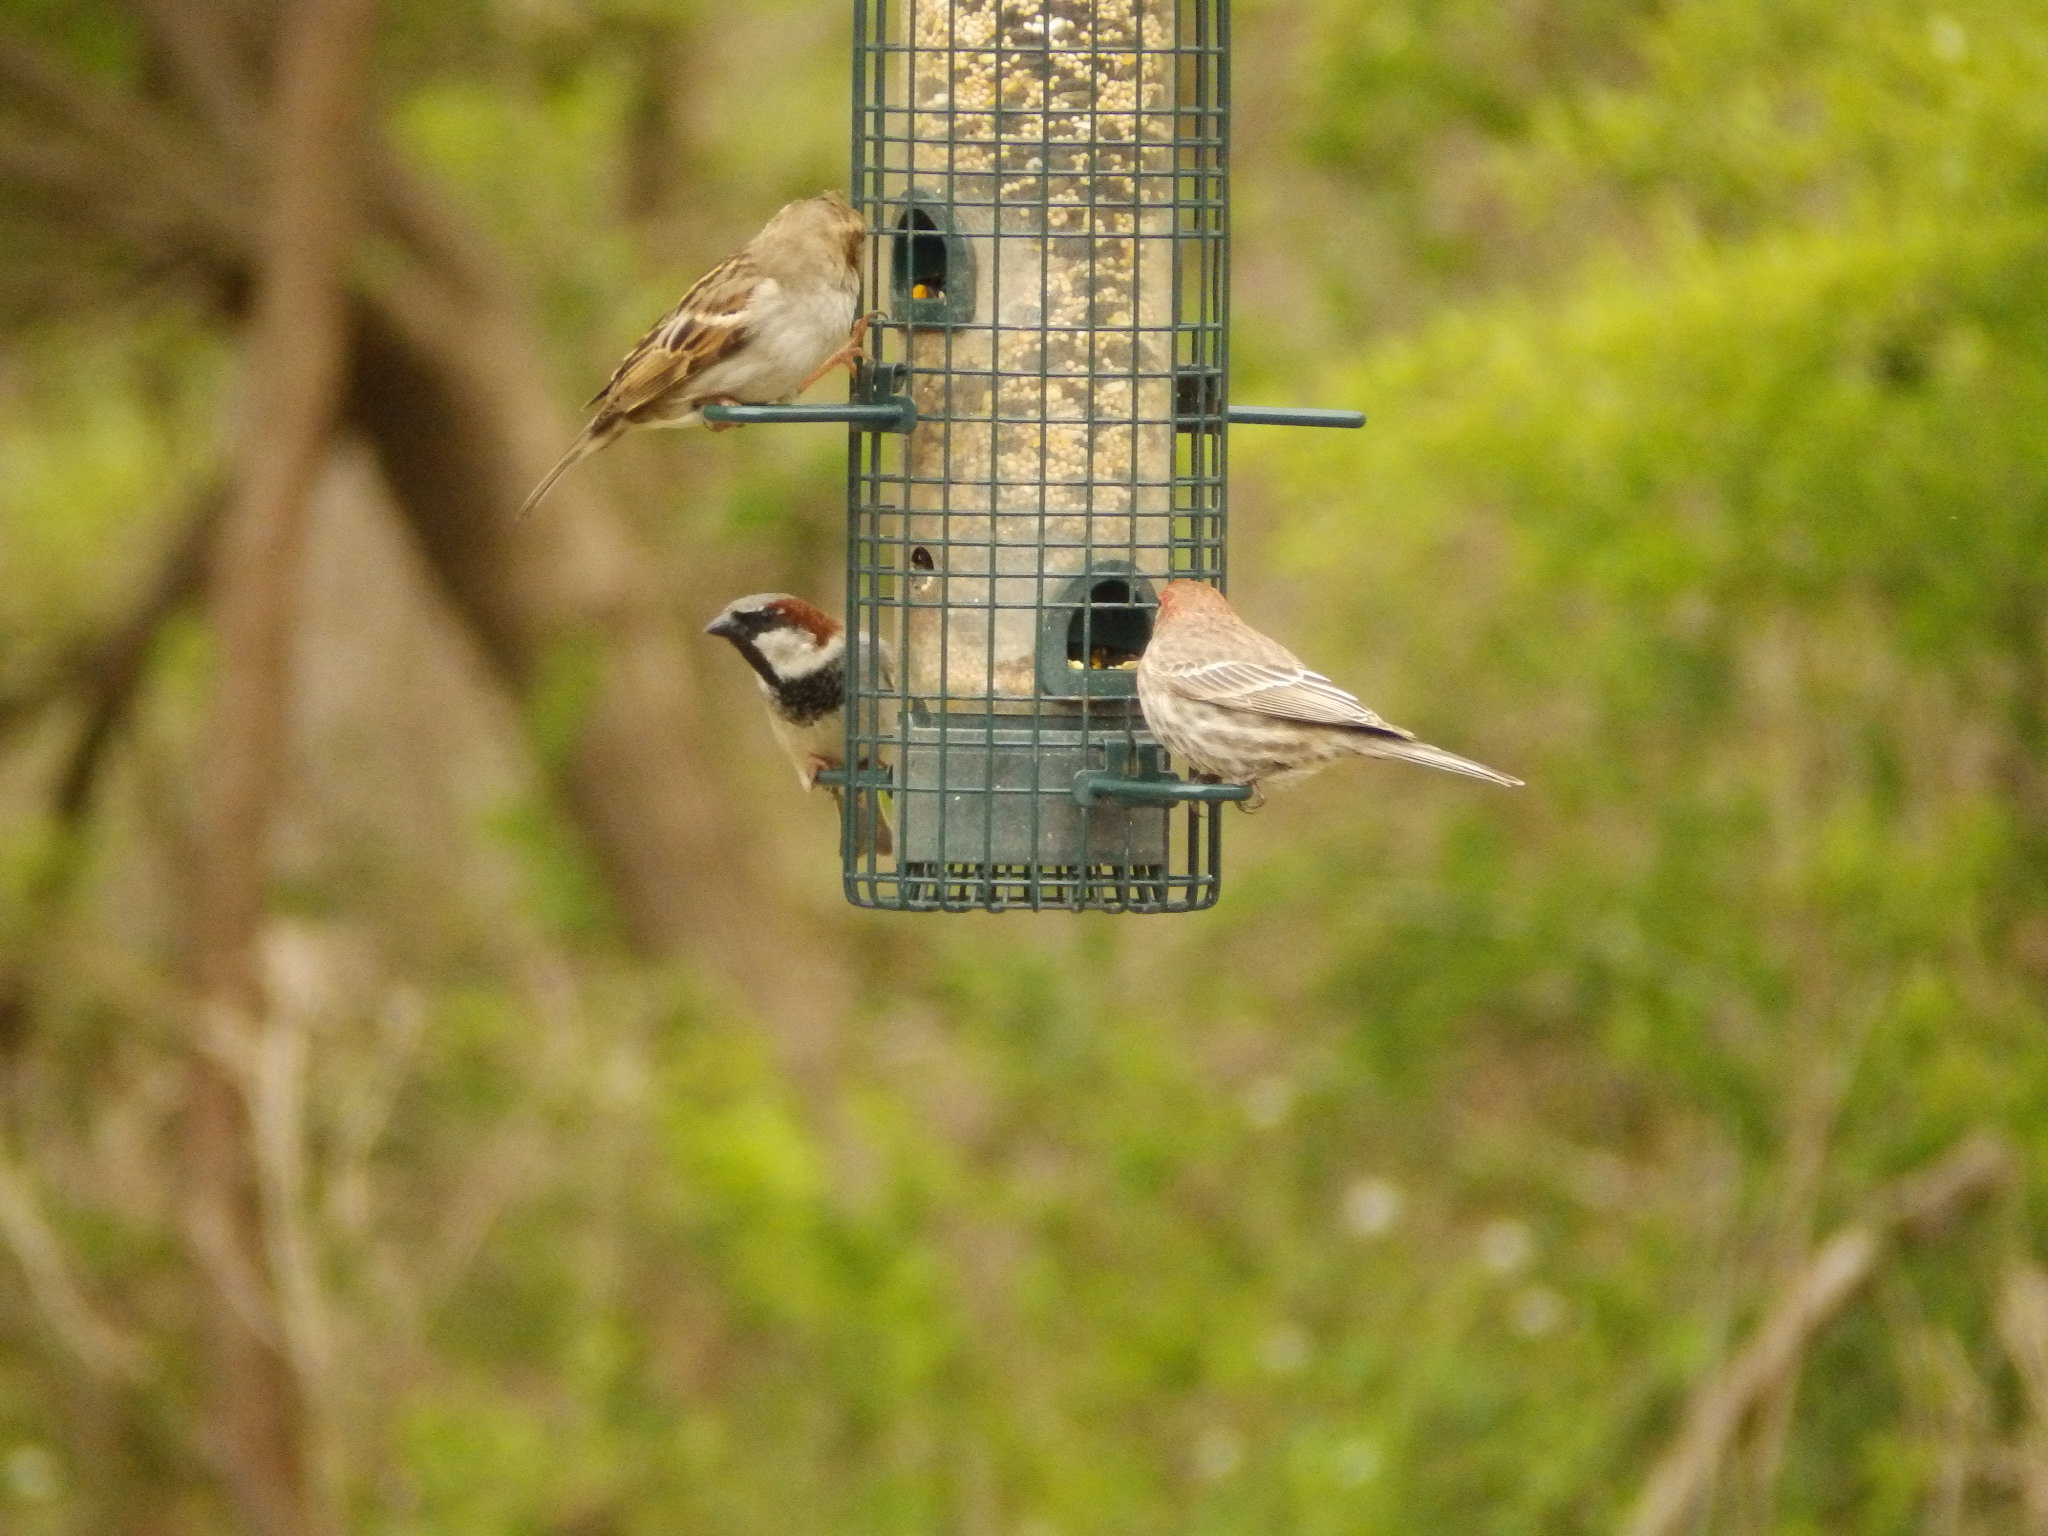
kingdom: Animalia
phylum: Chordata
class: Aves
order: Passeriformes
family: Passeridae
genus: Passer
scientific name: Passer domesticus
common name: House sparrow
